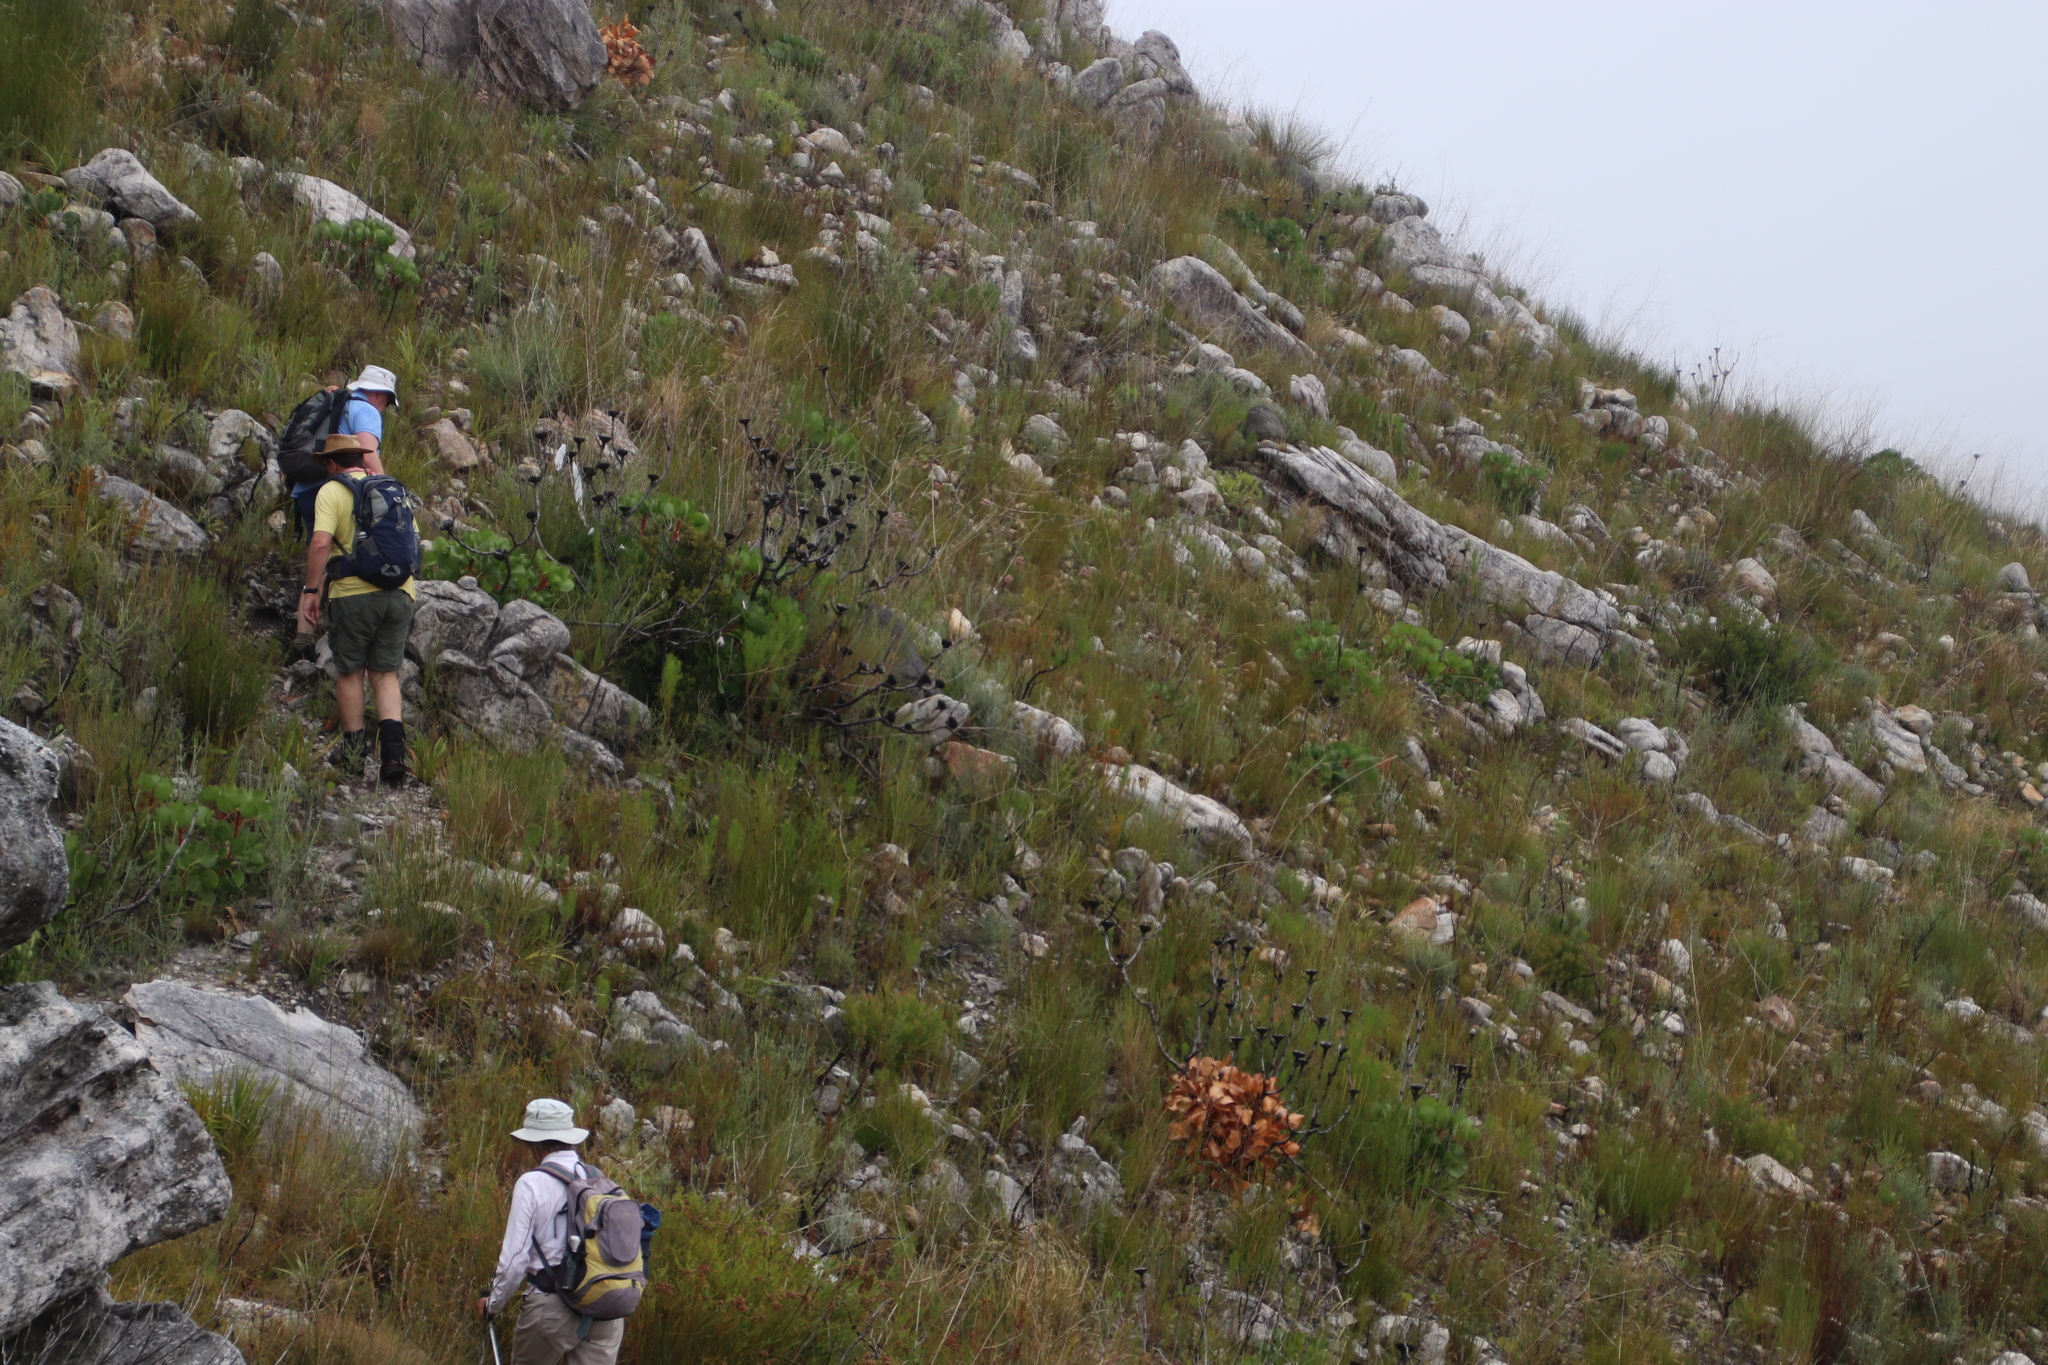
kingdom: Plantae
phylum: Tracheophyta
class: Magnoliopsida
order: Proteales
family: Proteaceae
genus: Protea
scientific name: Protea cynaroides
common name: King protea
